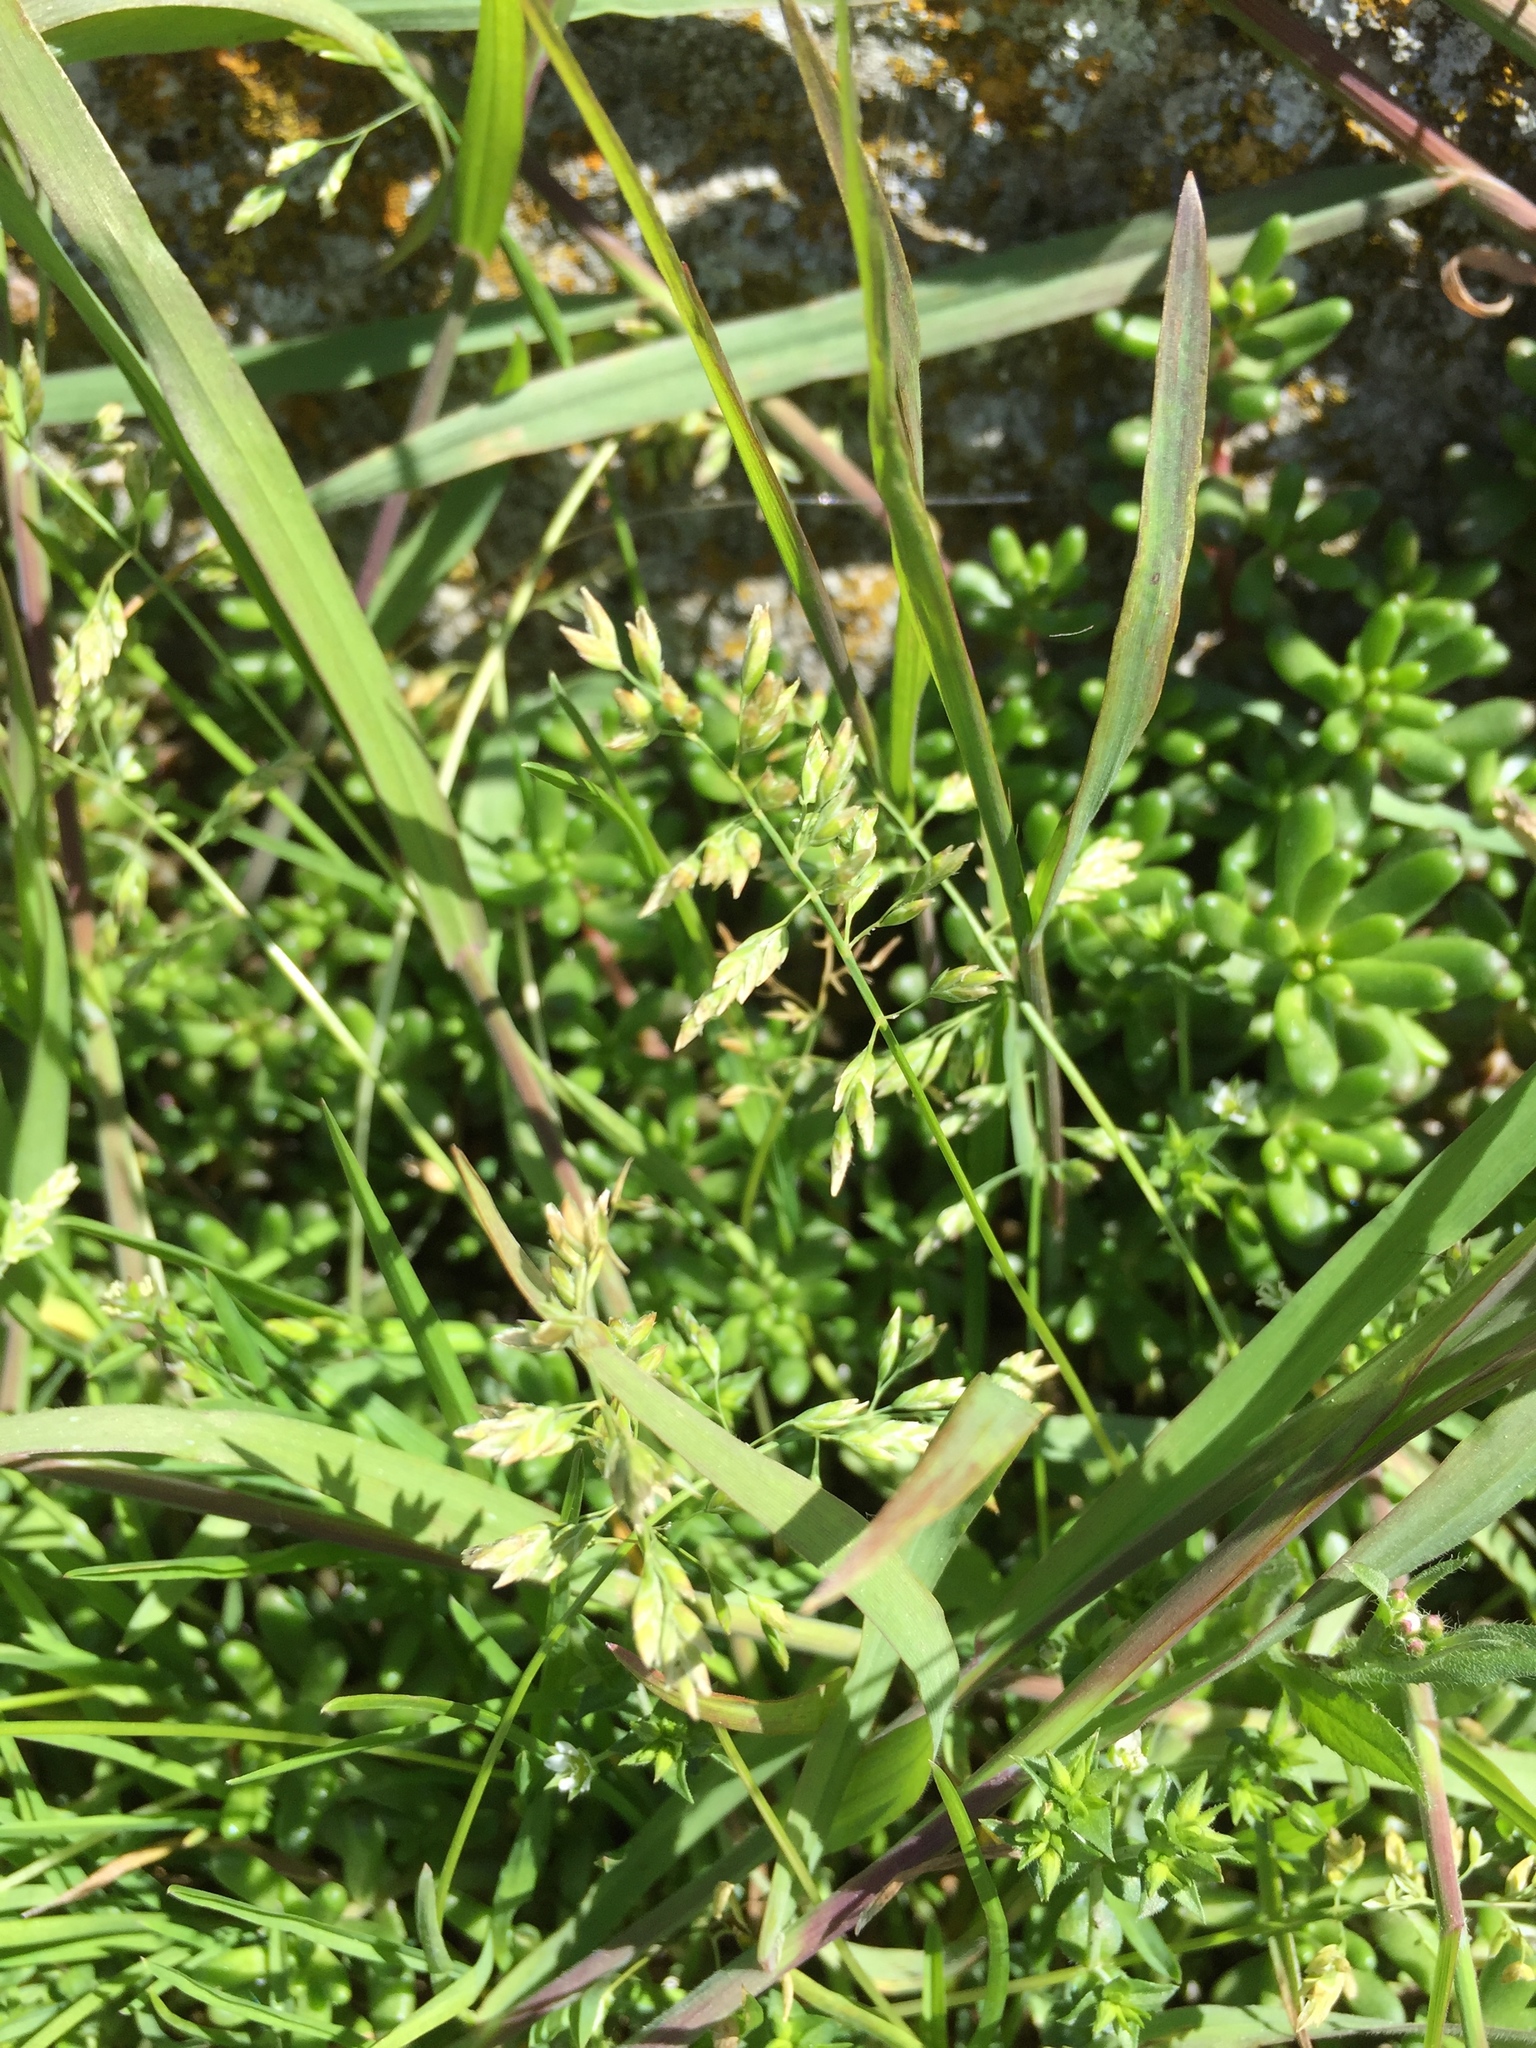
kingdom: Plantae
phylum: Tracheophyta
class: Liliopsida
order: Poales
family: Poaceae
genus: Poa
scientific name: Poa annua
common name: Annual bluegrass
